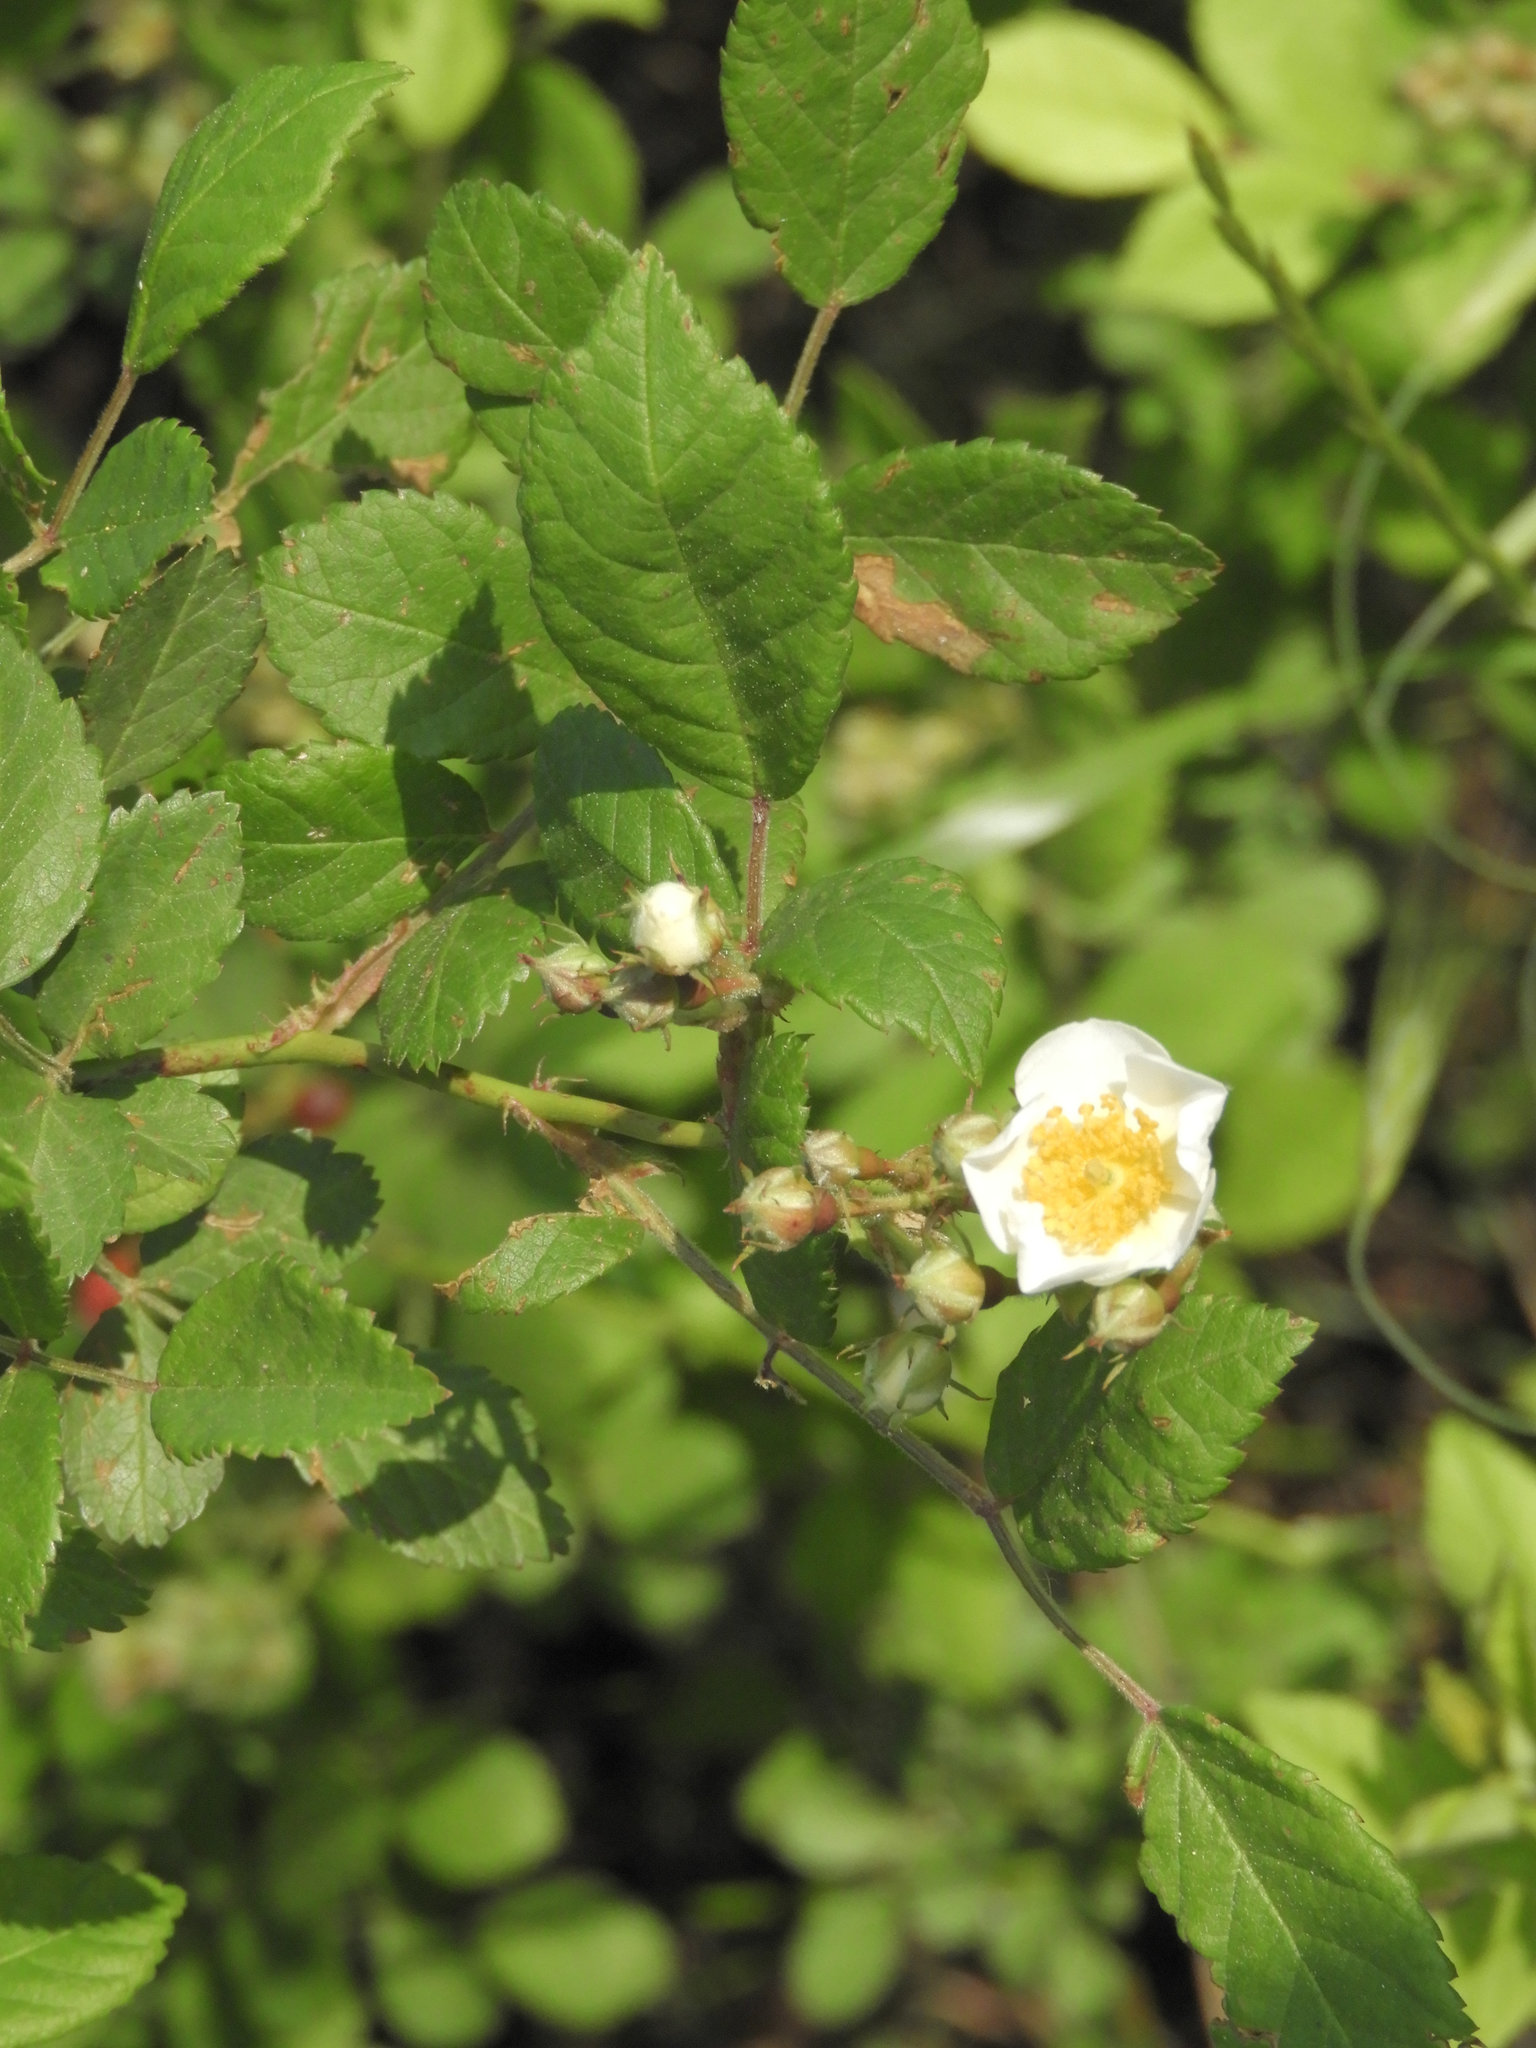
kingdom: Plantae
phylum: Tracheophyta
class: Magnoliopsida
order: Rosales
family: Rosaceae
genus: Rosa
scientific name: Rosa multiflora
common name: Multiflora rose
